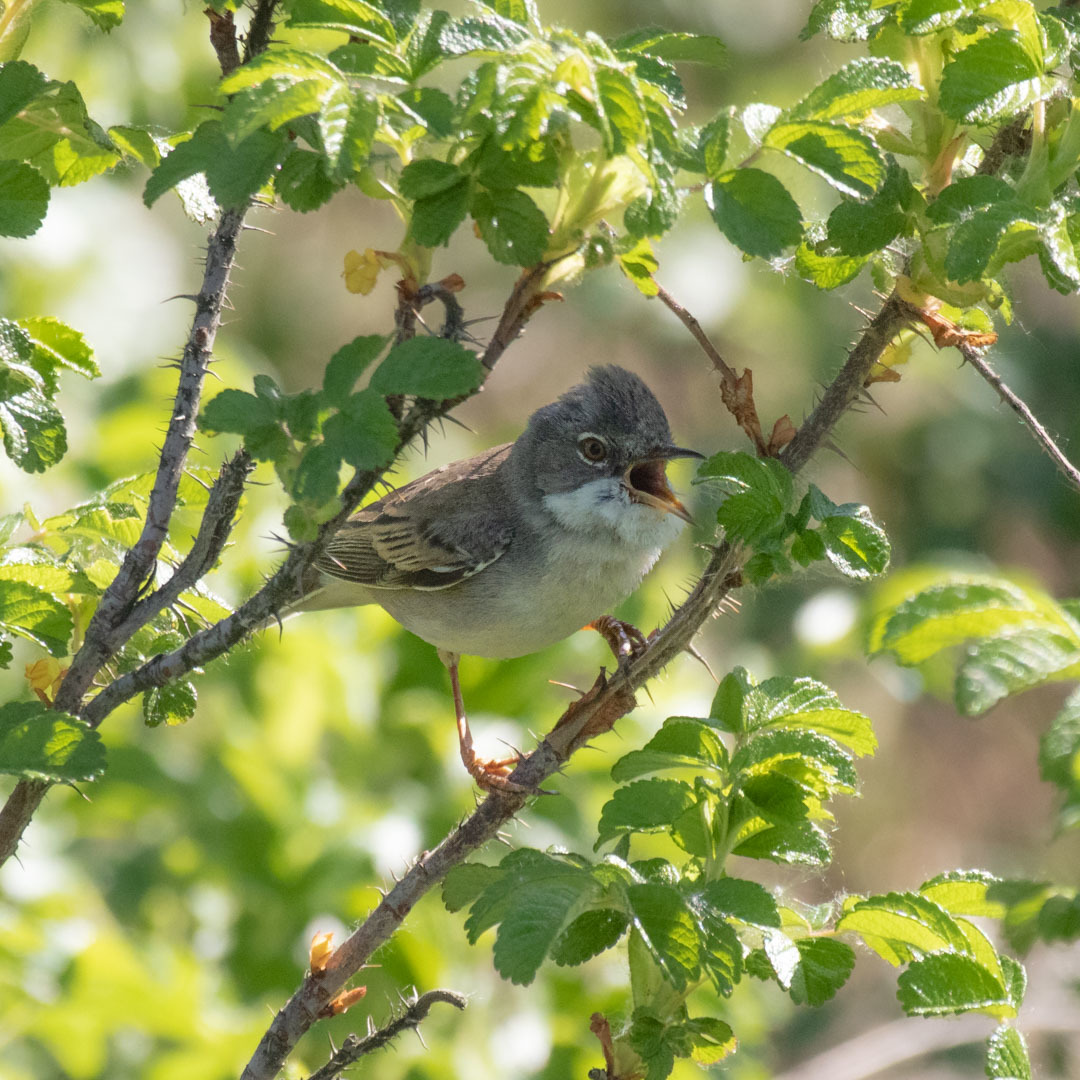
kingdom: Animalia
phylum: Chordata
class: Aves
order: Passeriformes
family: Sylviidae
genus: Sylvia
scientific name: Sylvia communis
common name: Common whitethroat
